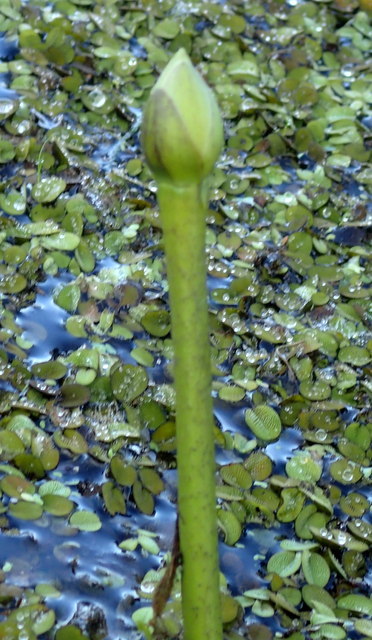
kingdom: Plantae
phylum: Tracheophyta
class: Magnoliopsida
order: Proteales
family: Nelumbonaceae
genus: Nelumbo
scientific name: Nelumbo lutea
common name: American lotus
